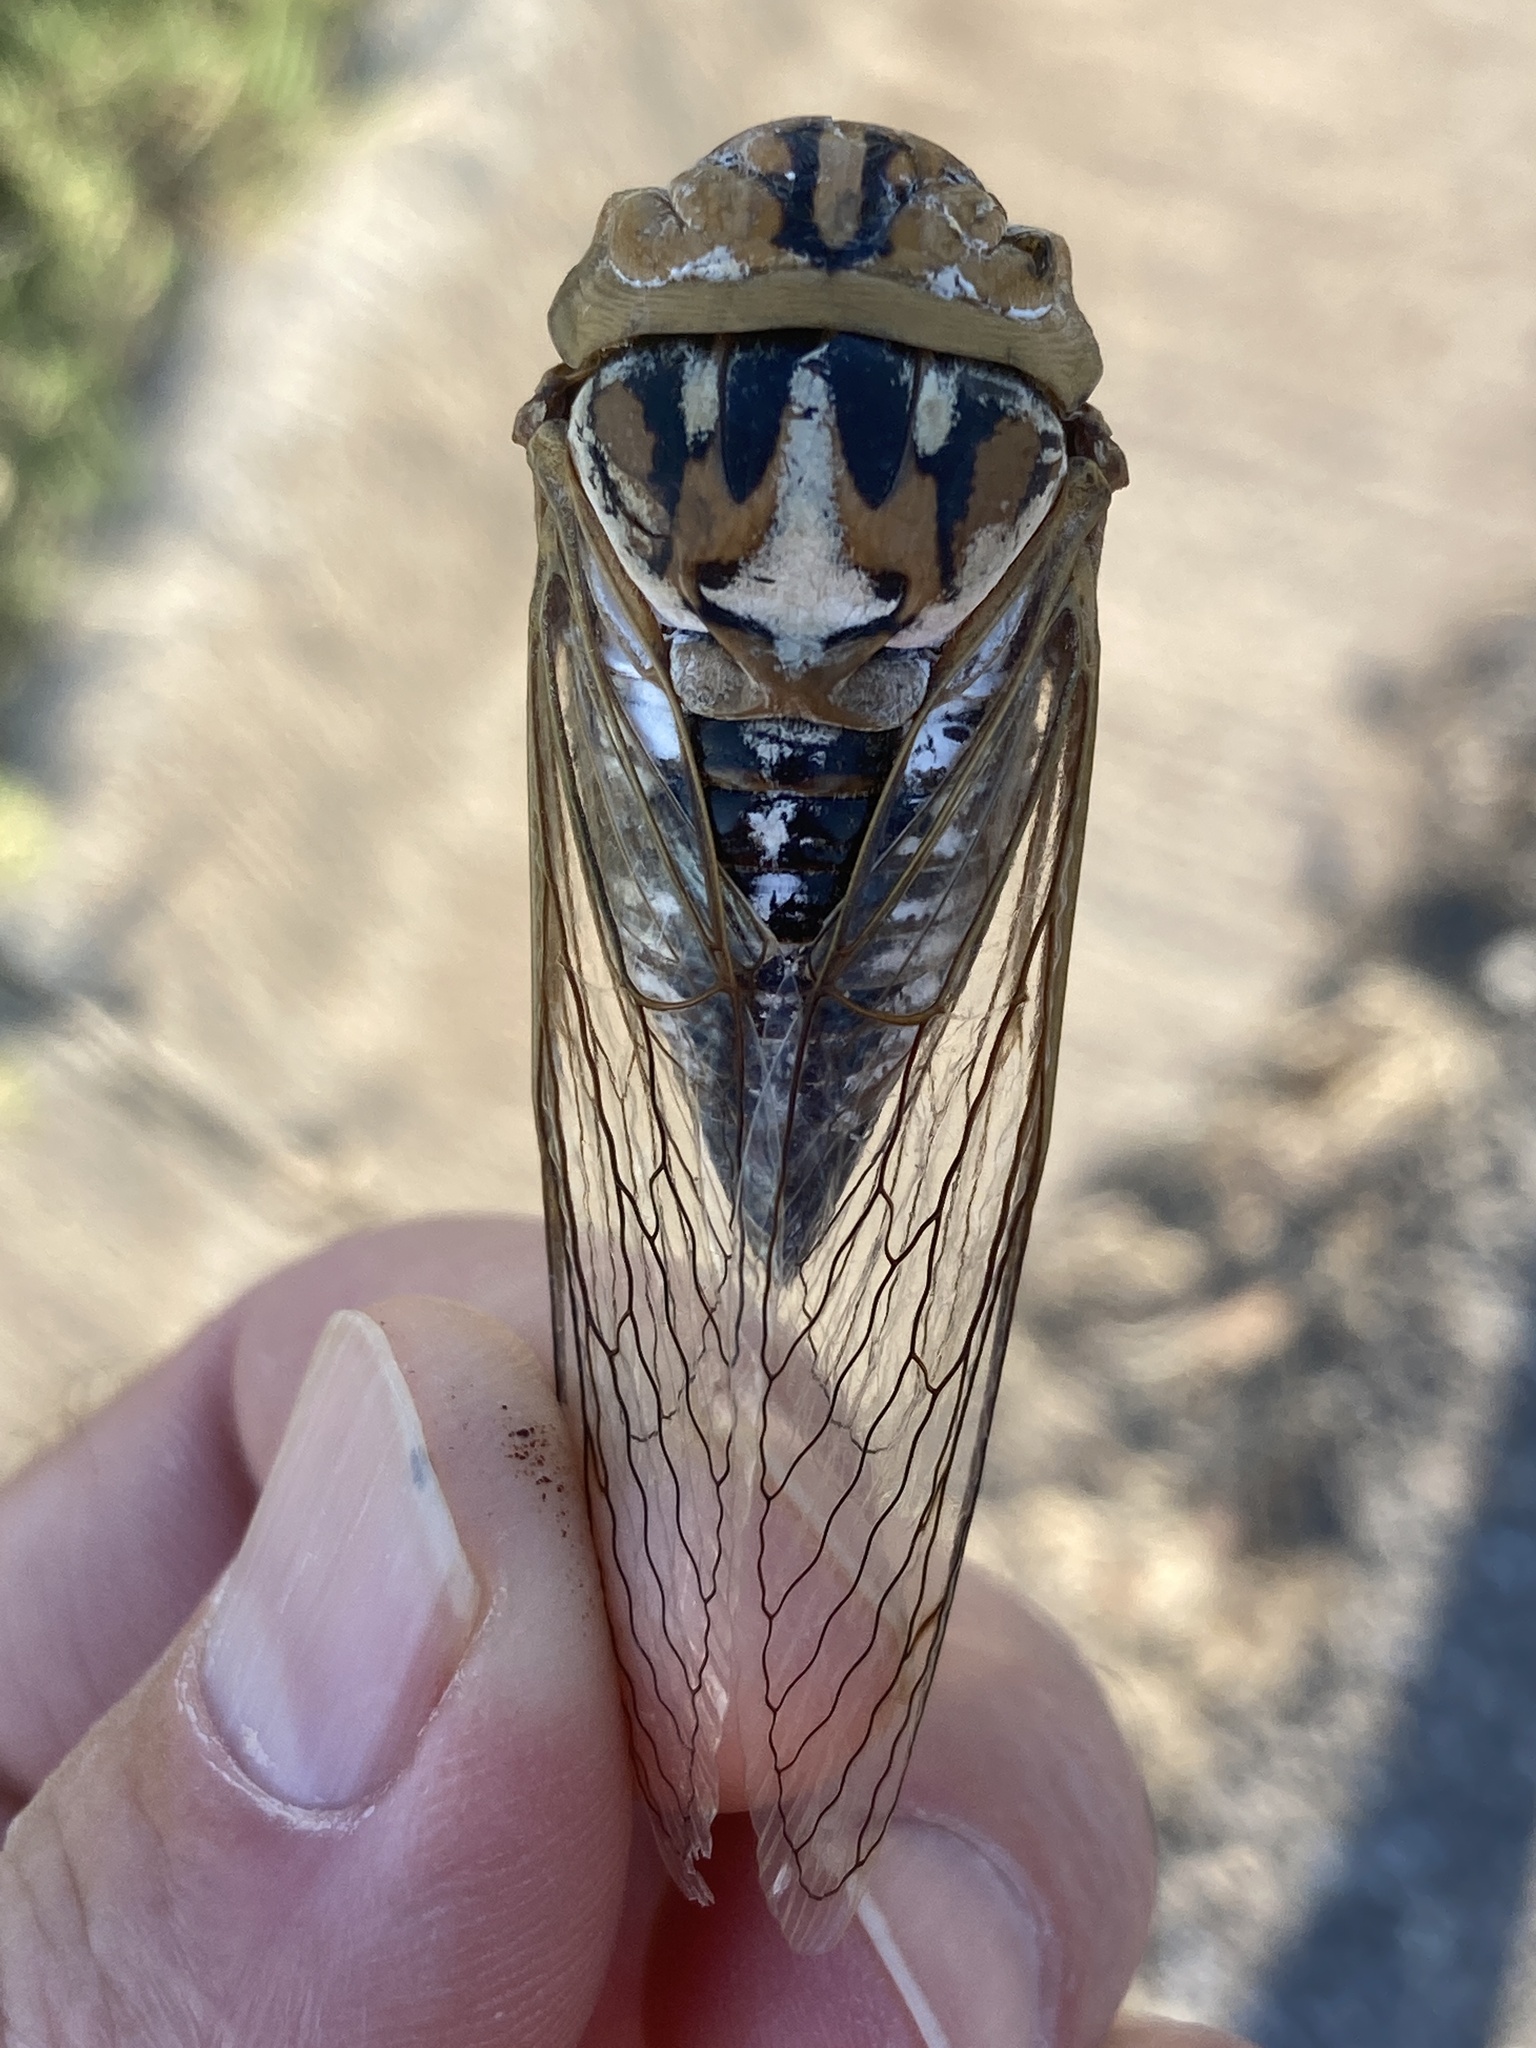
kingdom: Animalia
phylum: Arthropoda
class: Insecta
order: Hemiptera
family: Cicadidae
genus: Megatibicen
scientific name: Megatibicen dealbatus
